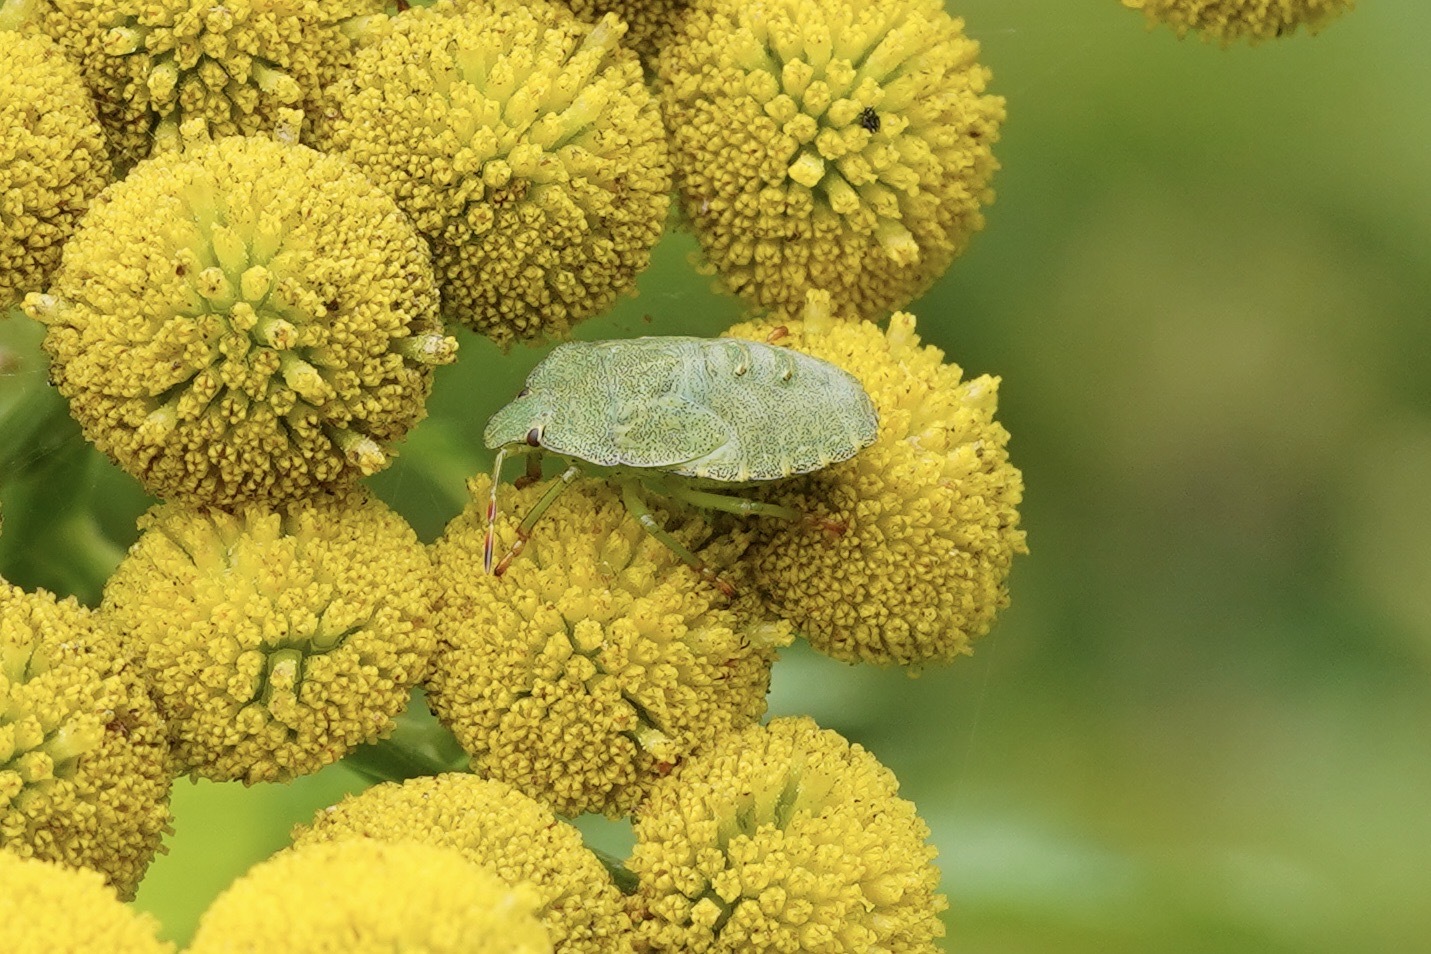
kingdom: Animalia
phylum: Arthropoda
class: Insecta
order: Hemiptera
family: Pentatomidae
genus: Palomena
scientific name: Palomena prasina
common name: Green shieldbug
